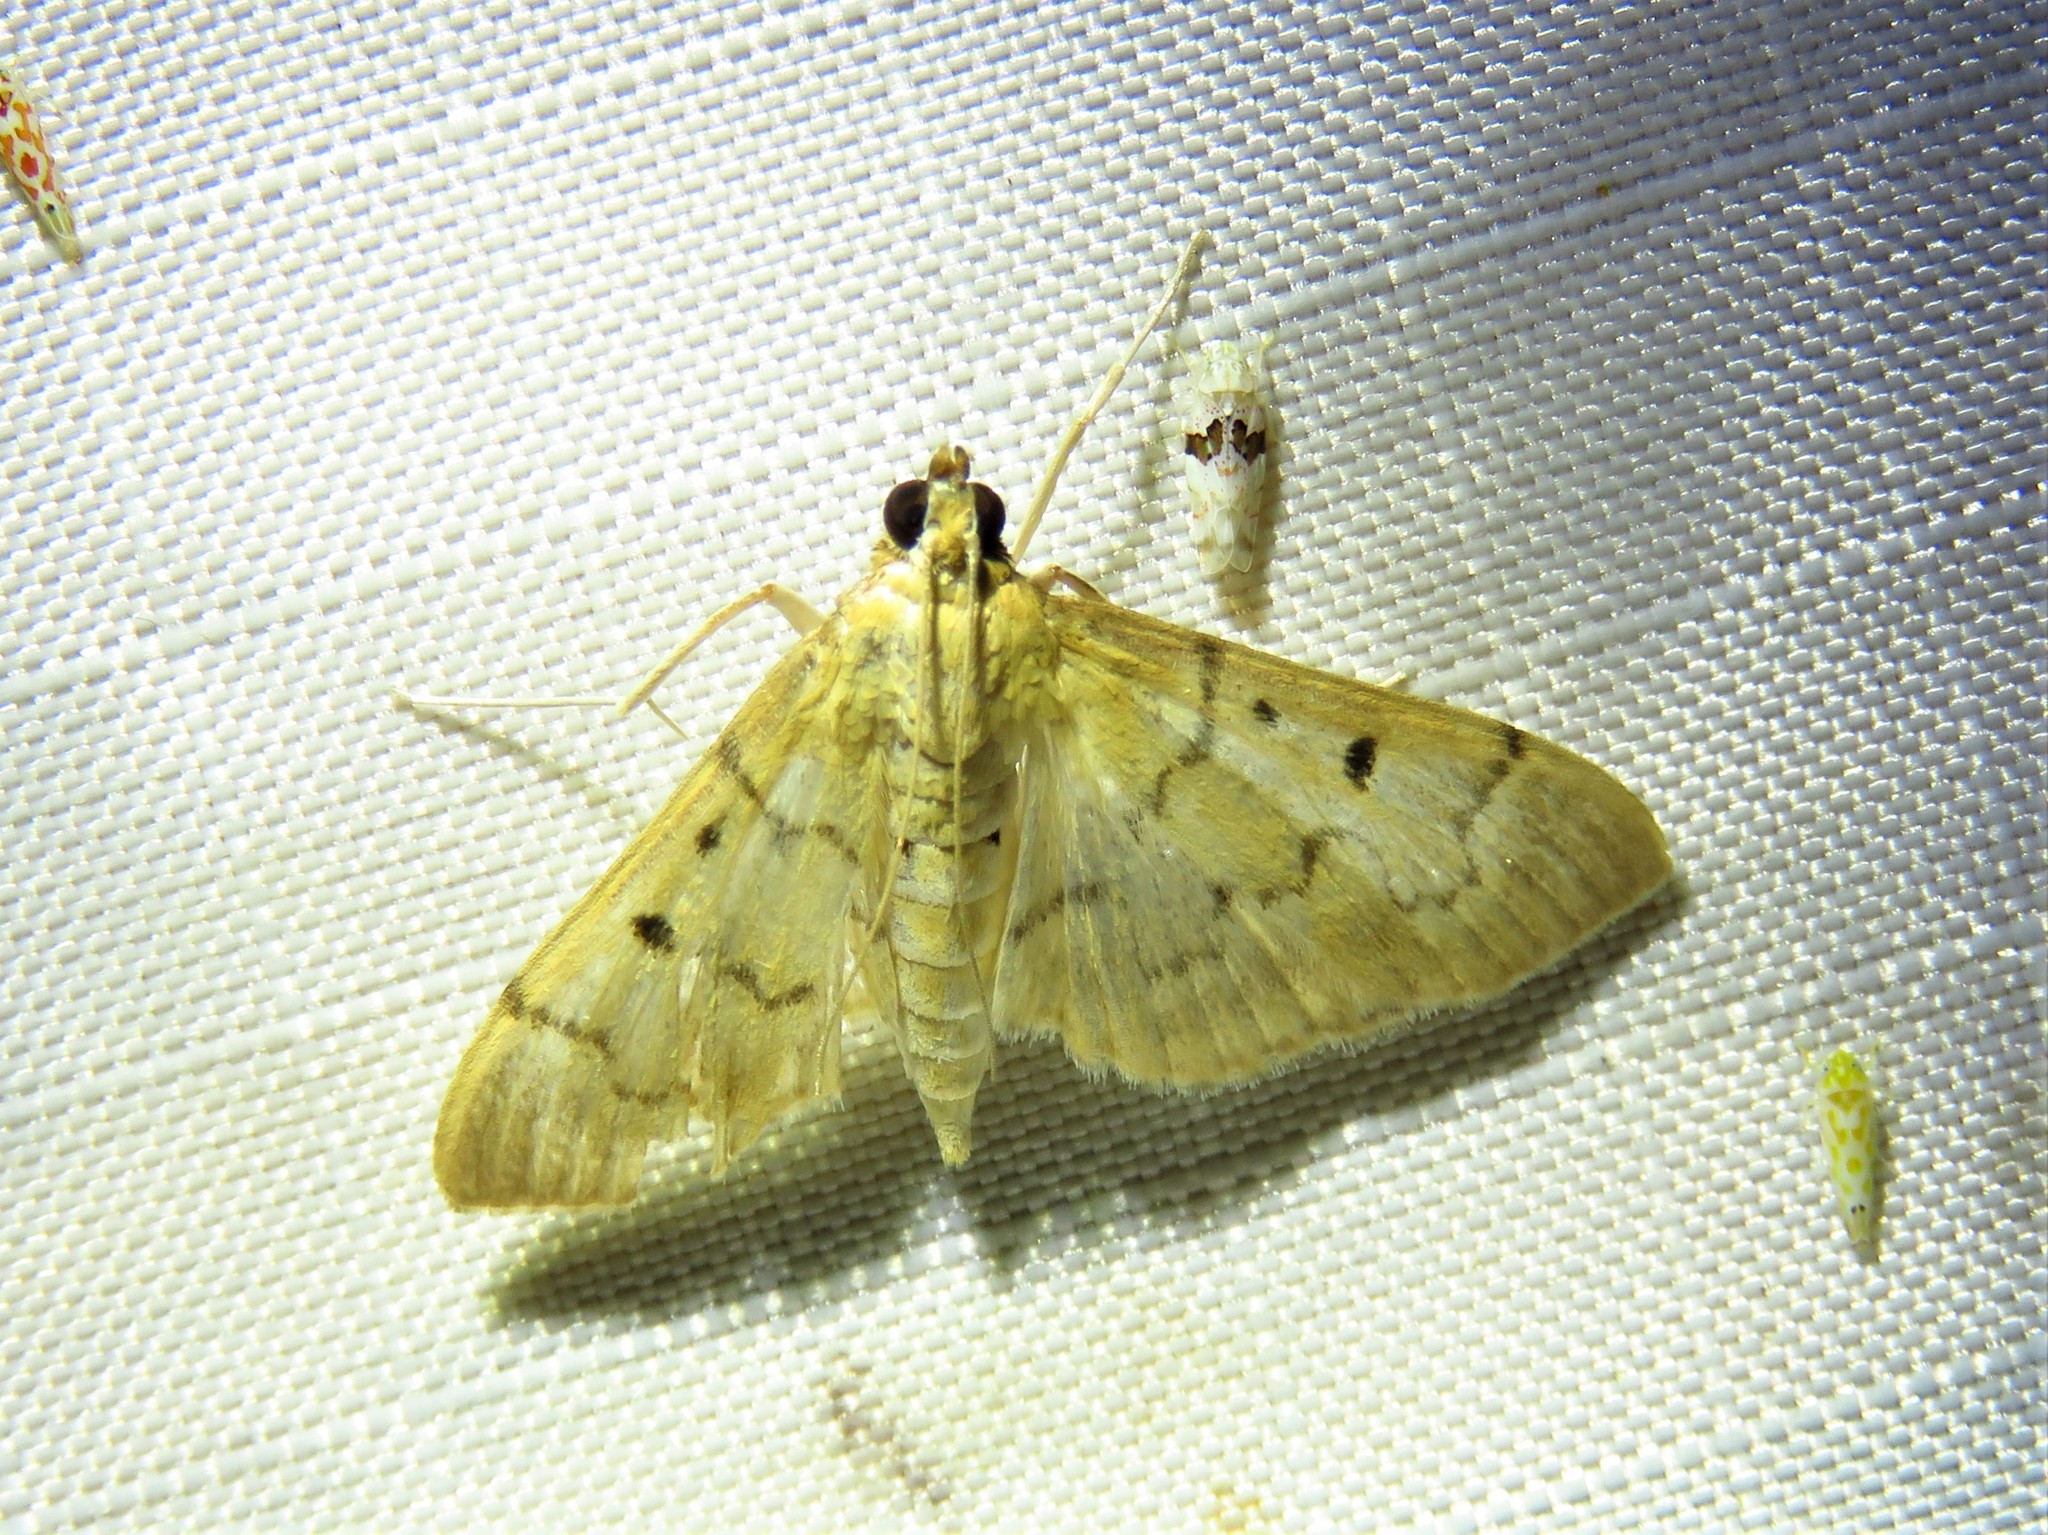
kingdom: Animalia
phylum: Arthropoda
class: Insecta
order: Lepidoptera
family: Crambidae
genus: Herpetogramma
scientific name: Herpetogramma bipunctalis
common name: Southern beet webworm
